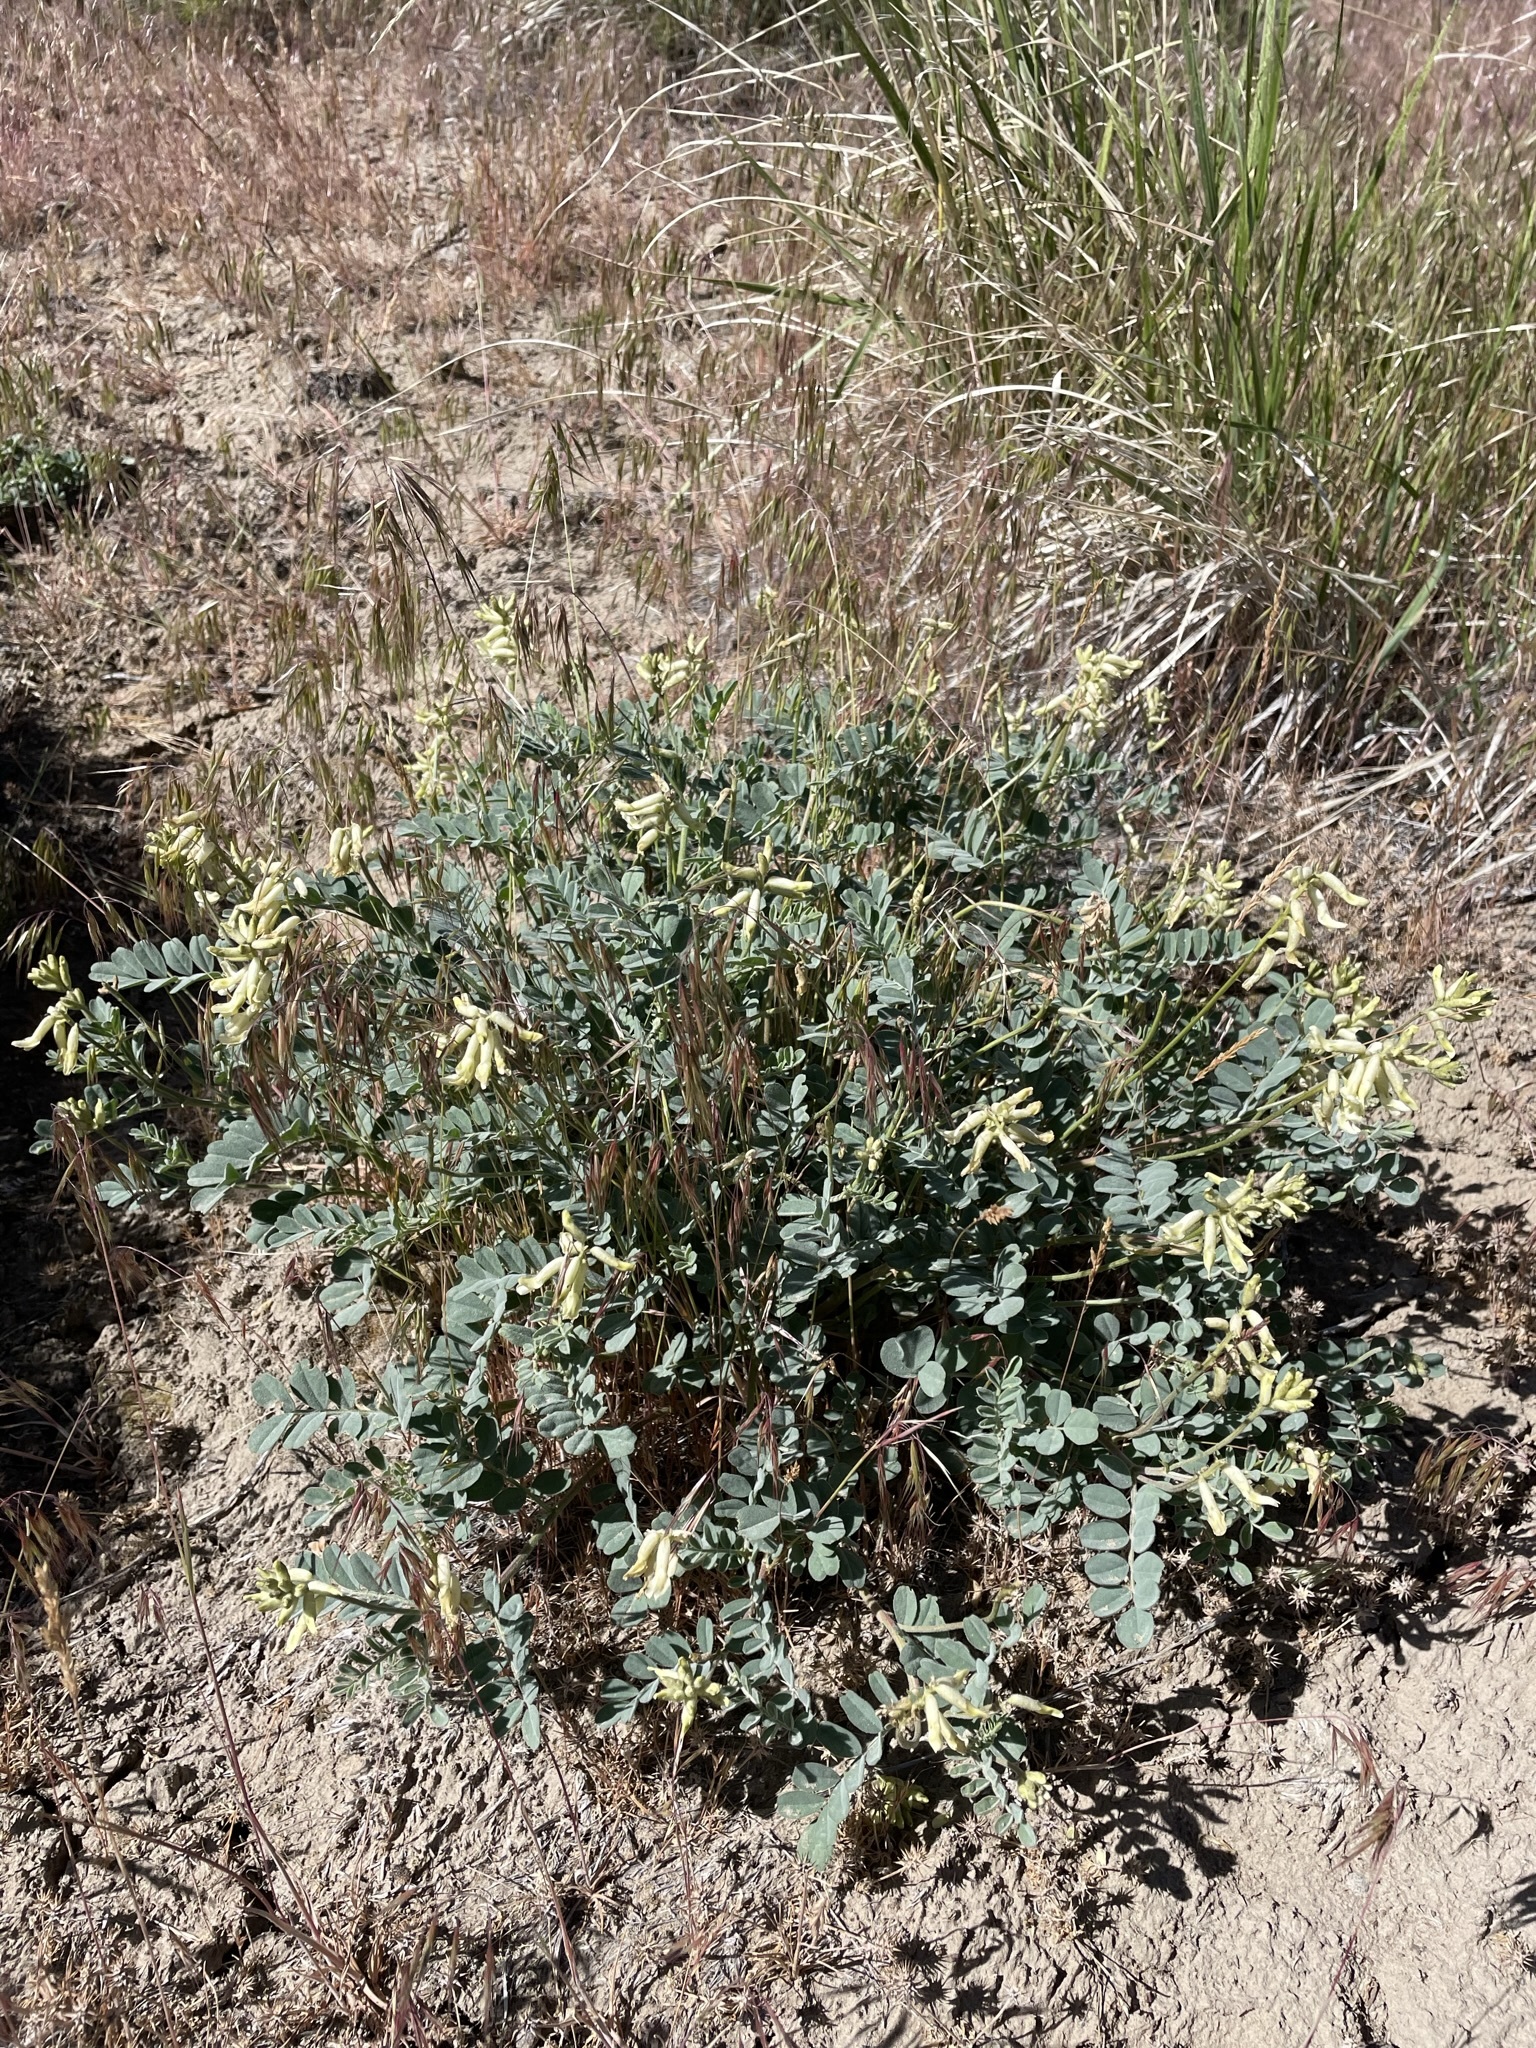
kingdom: Plantae
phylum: Tracheophyta
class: Magnoliopsida
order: Fabales
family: Fabaceae
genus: Astragalus
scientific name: Astragalus curvicarpus
